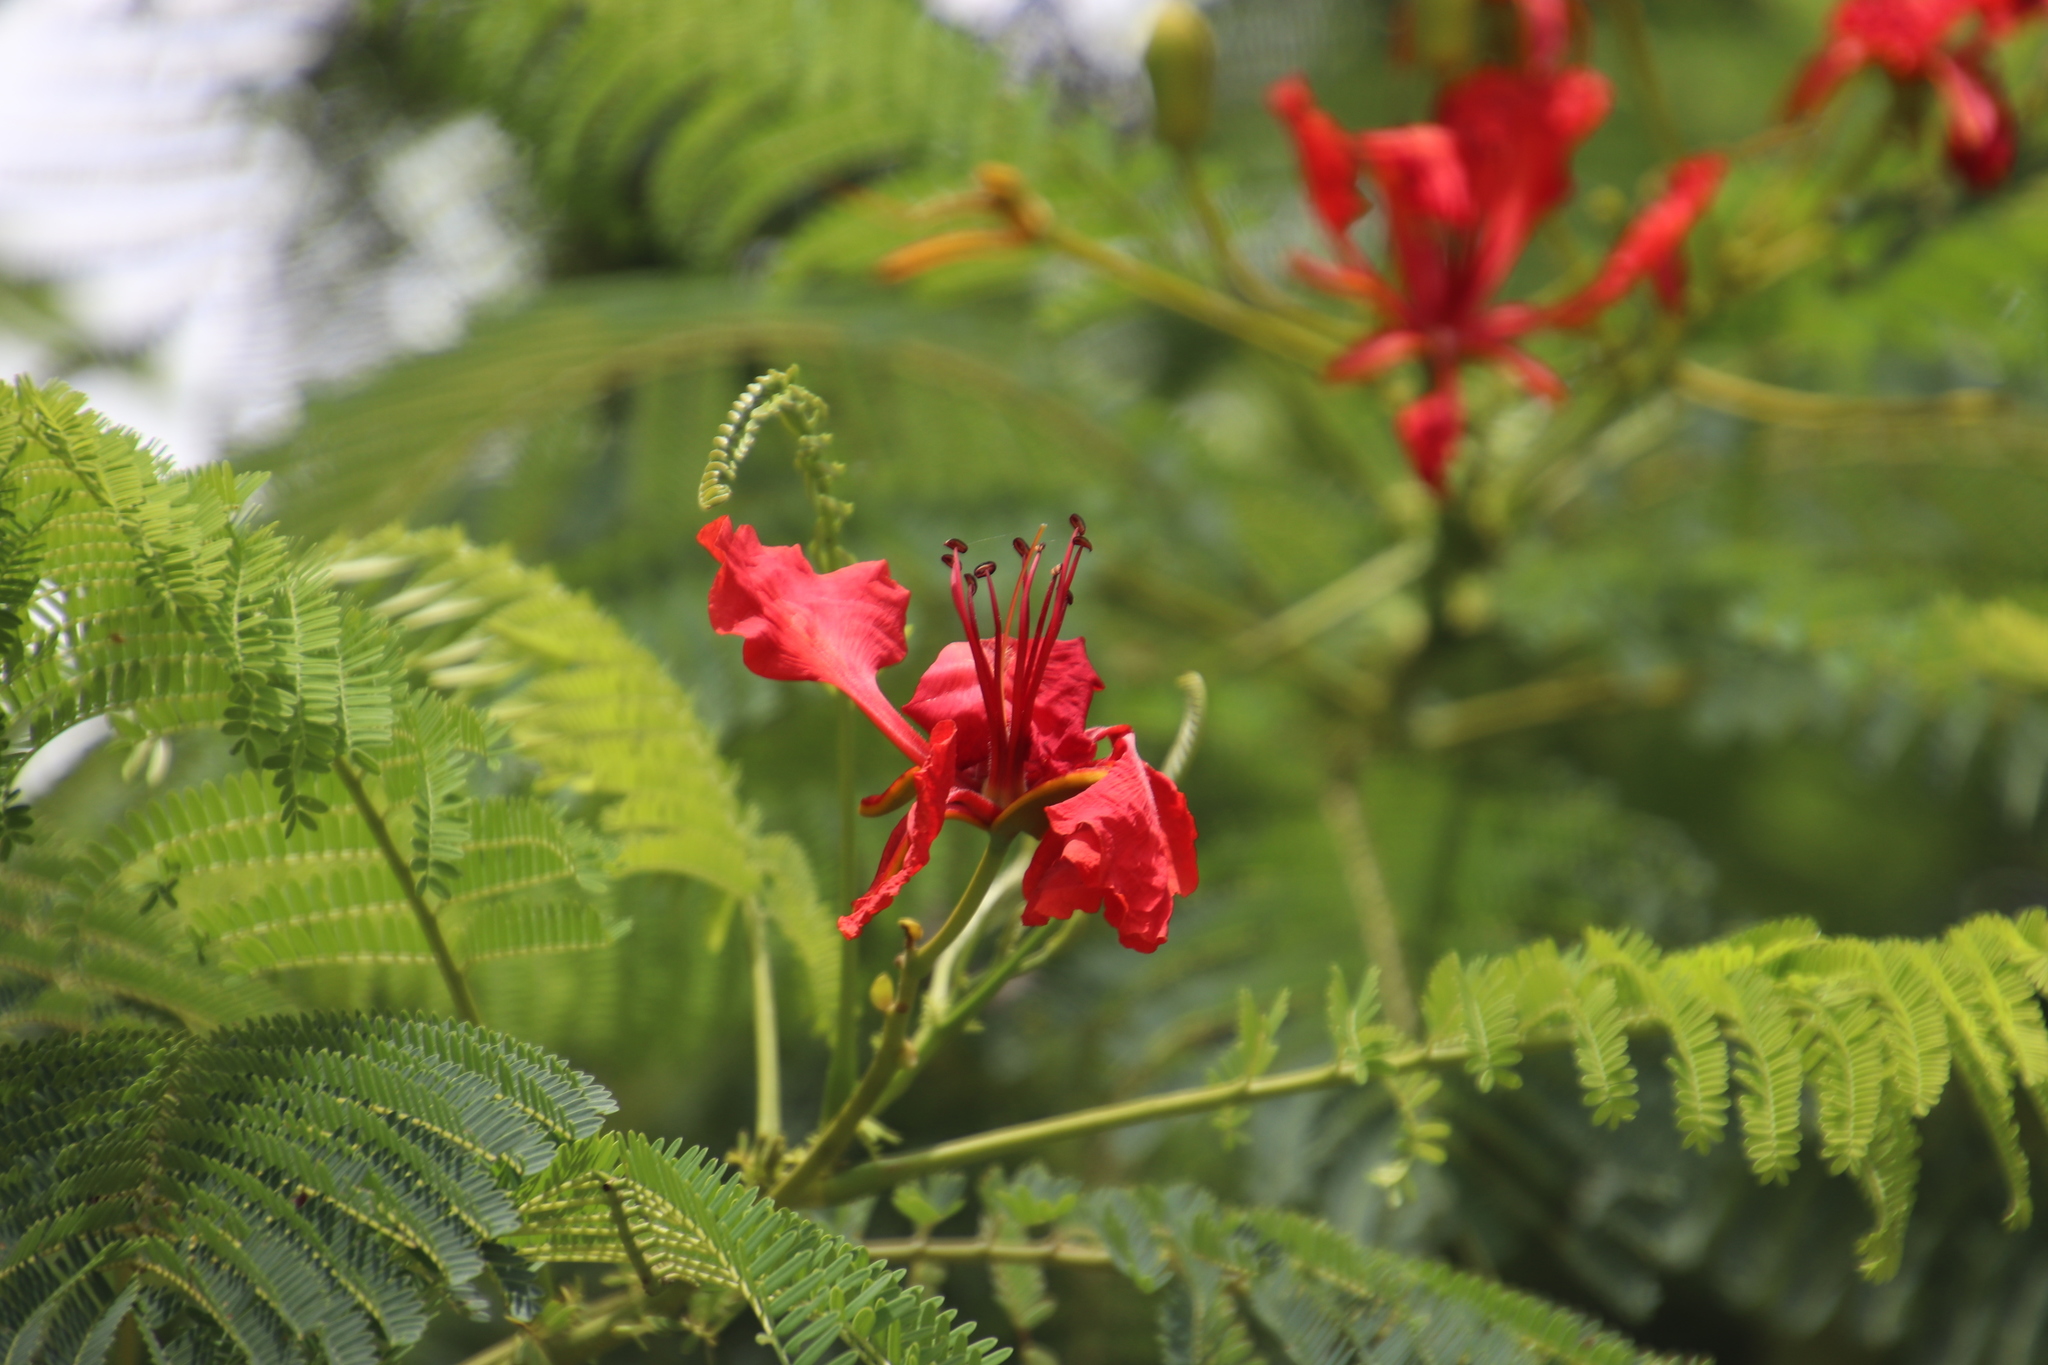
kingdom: Plantae
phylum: Tracheophyta
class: Magnoliopsida
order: Fabales
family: Fabaceae
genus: Delonix
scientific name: Delonix regia
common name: Royal poinciana
